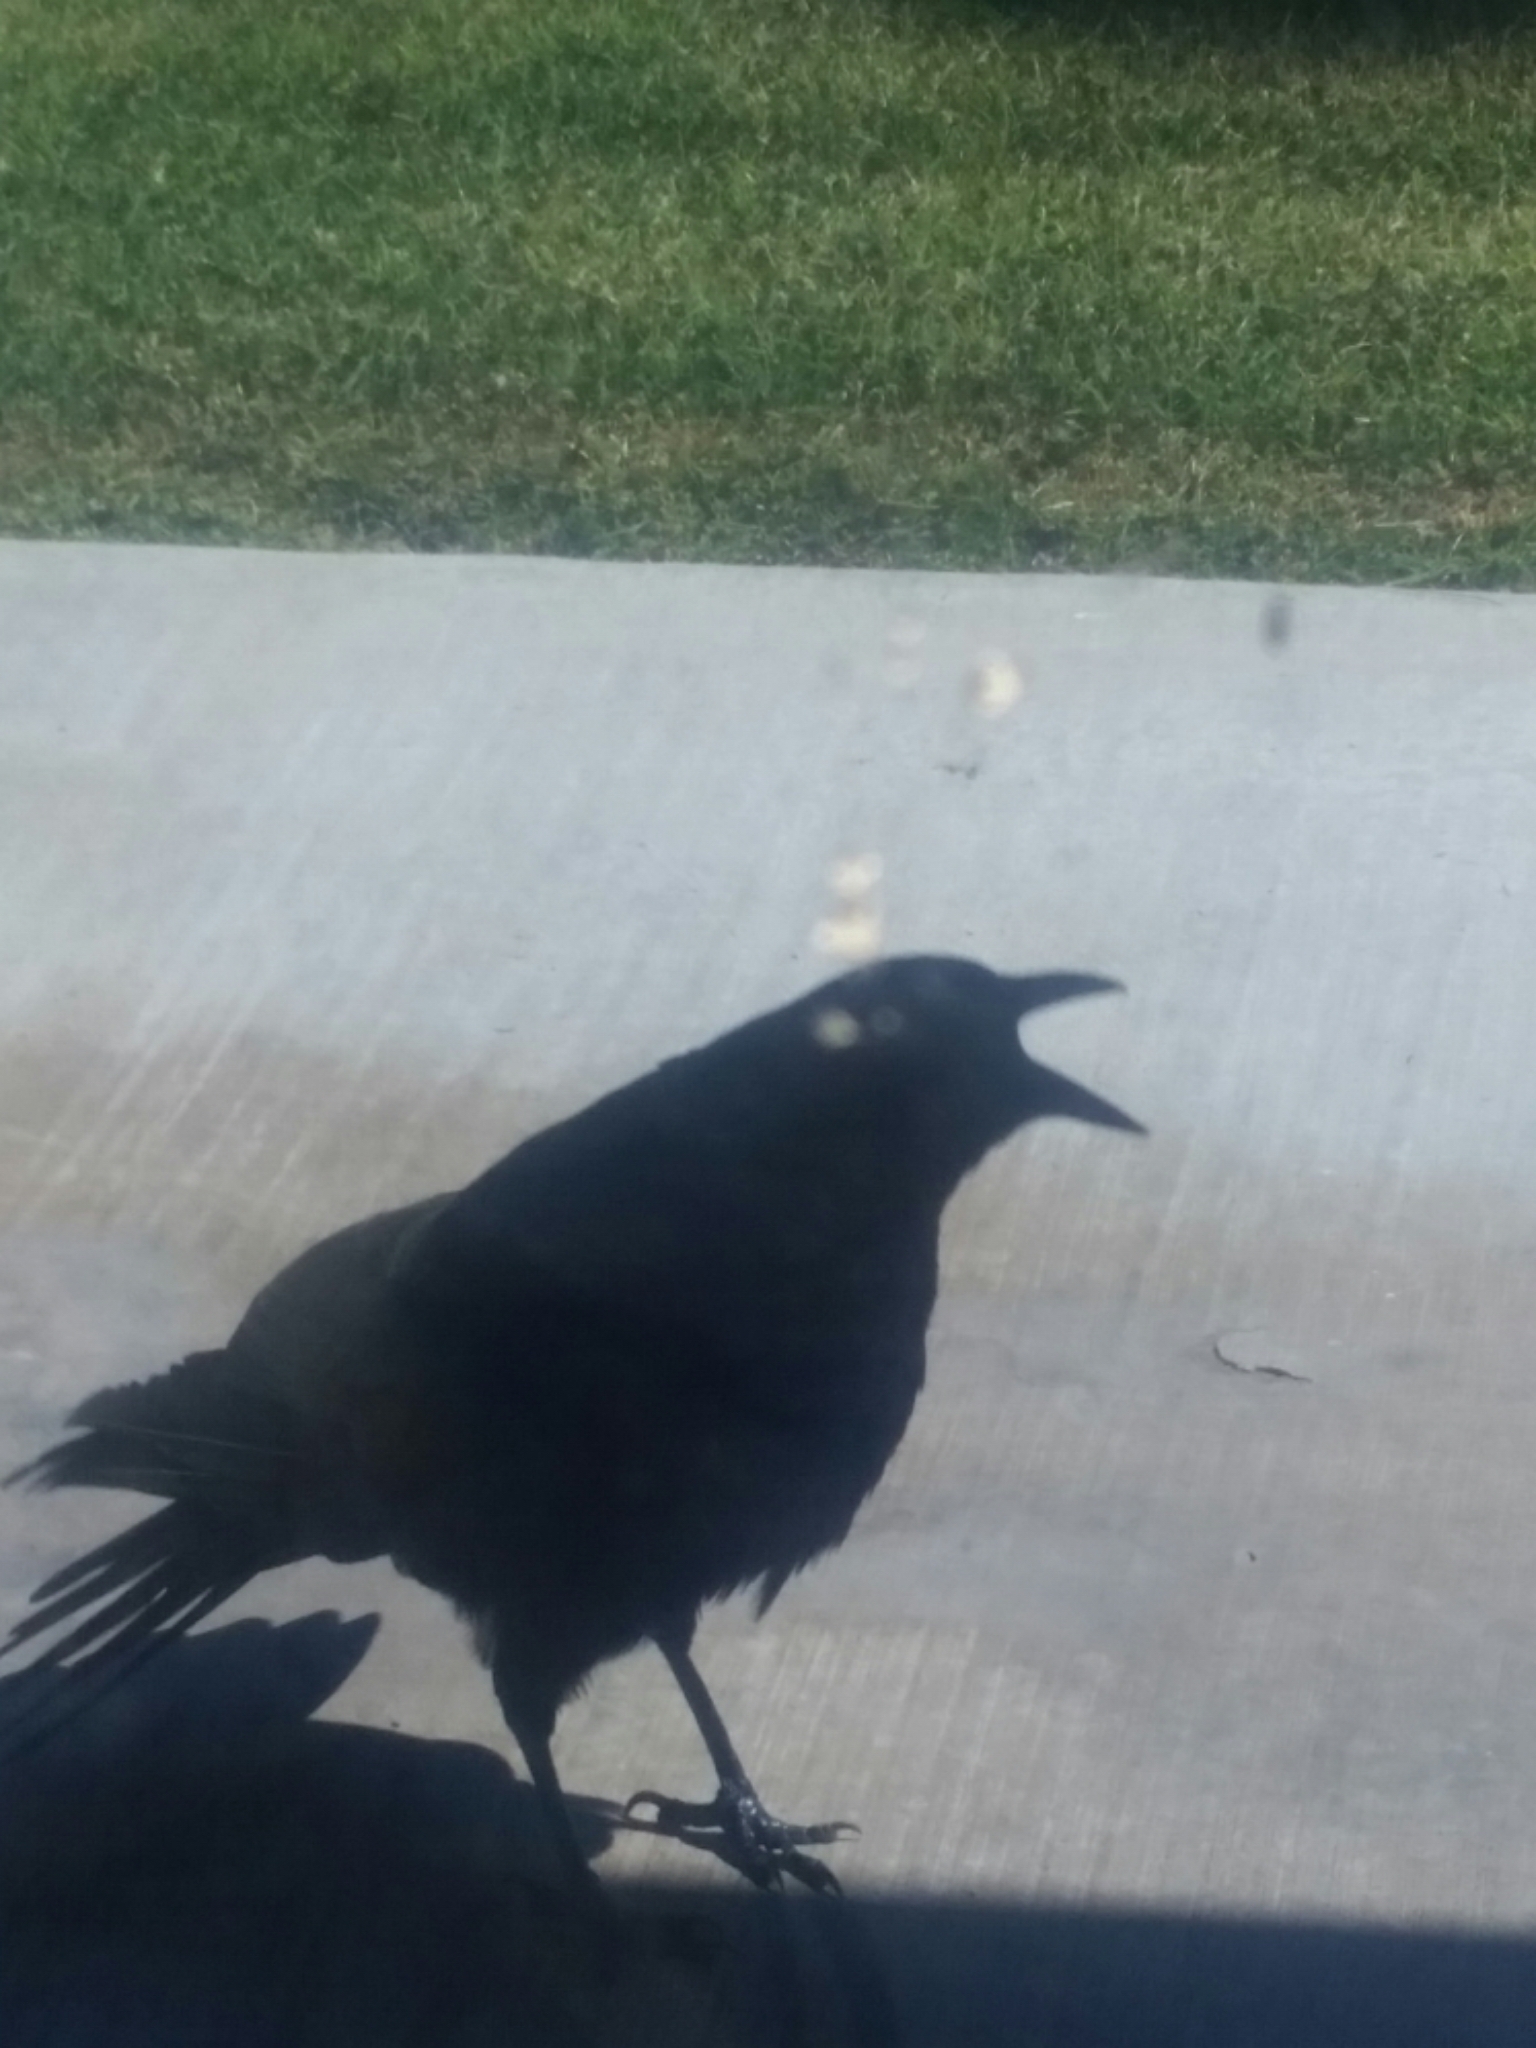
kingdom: Animalia
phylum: Chordata
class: Aves
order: Passeriformes
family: Corvidae
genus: Corvus
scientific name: Corvus brachyrhynchos
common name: American crow
